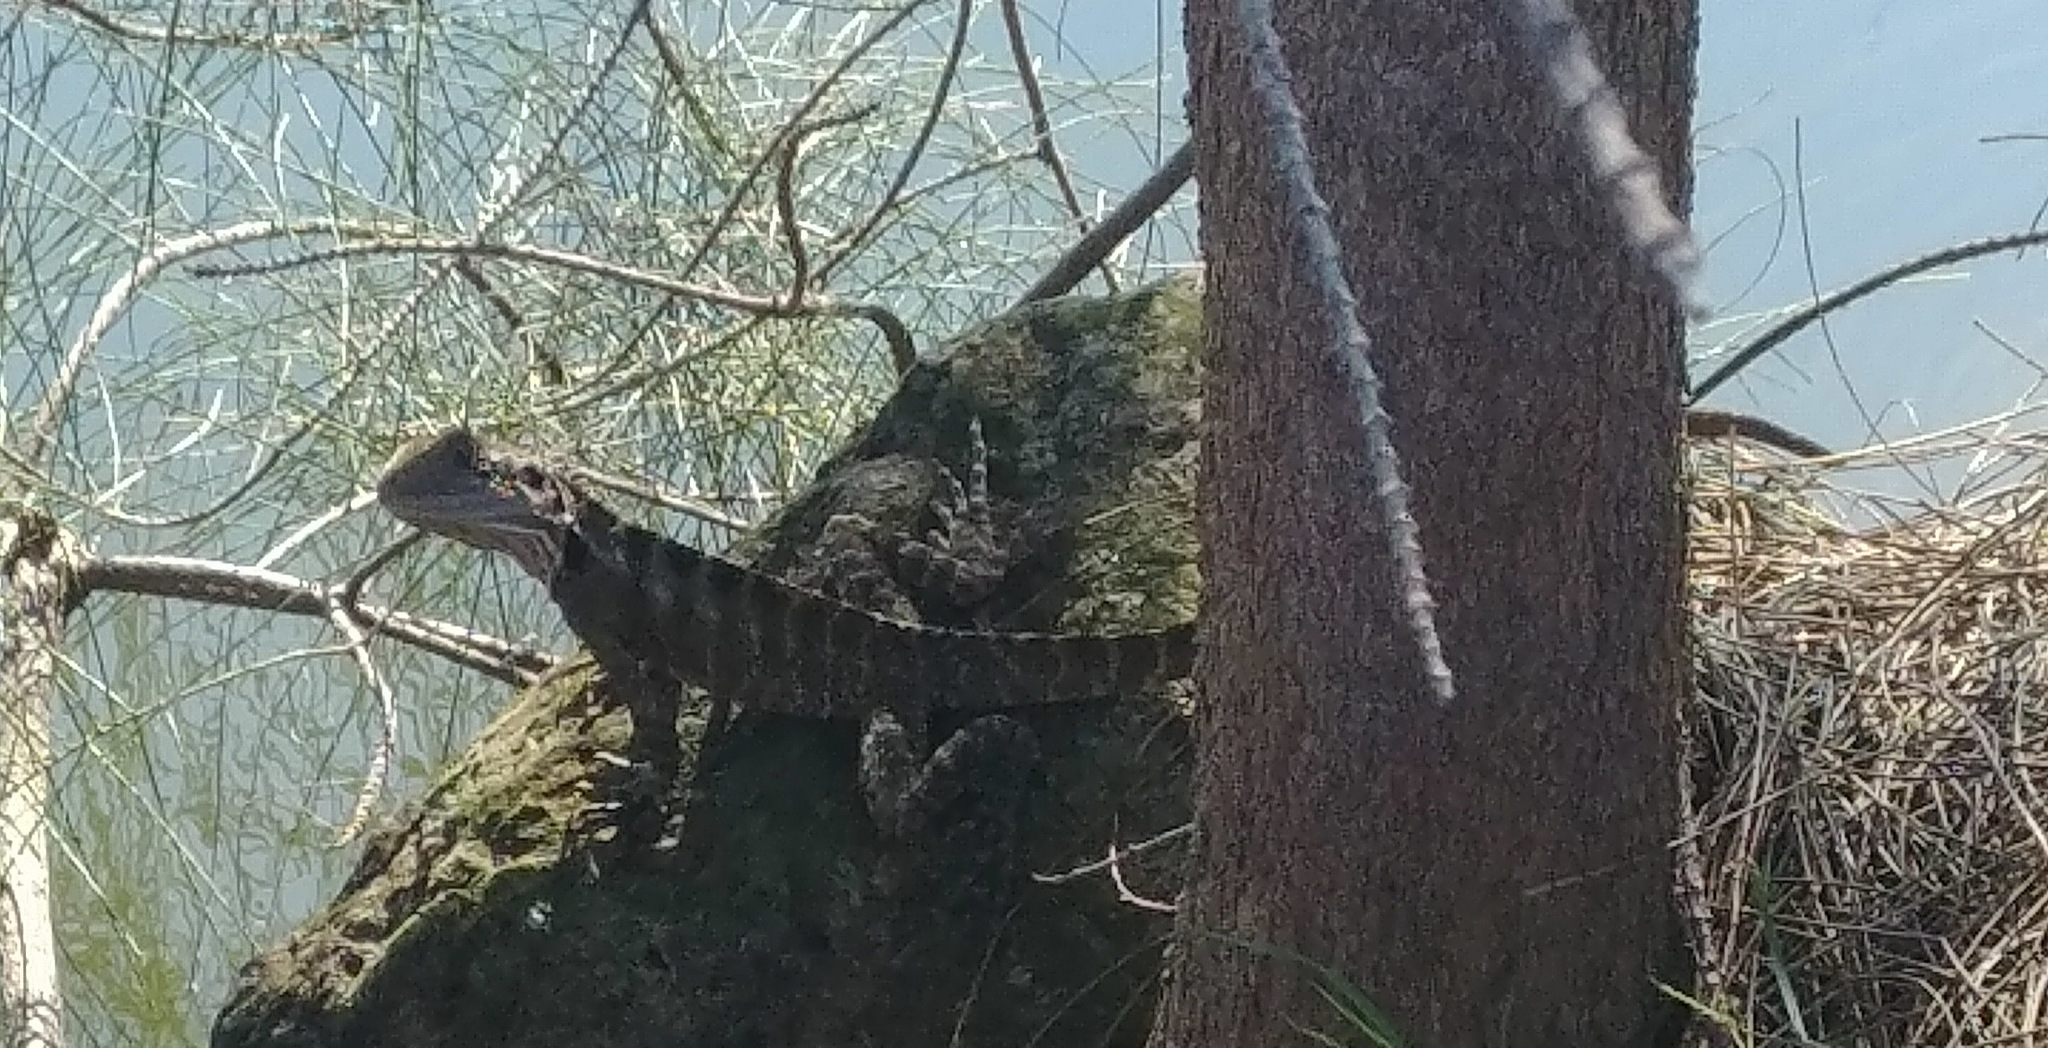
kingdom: Animalia
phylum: Chordata
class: Squamata
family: Agamidae
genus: Intellagama
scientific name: Intellagama lesueurii
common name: Eastern water dragon
